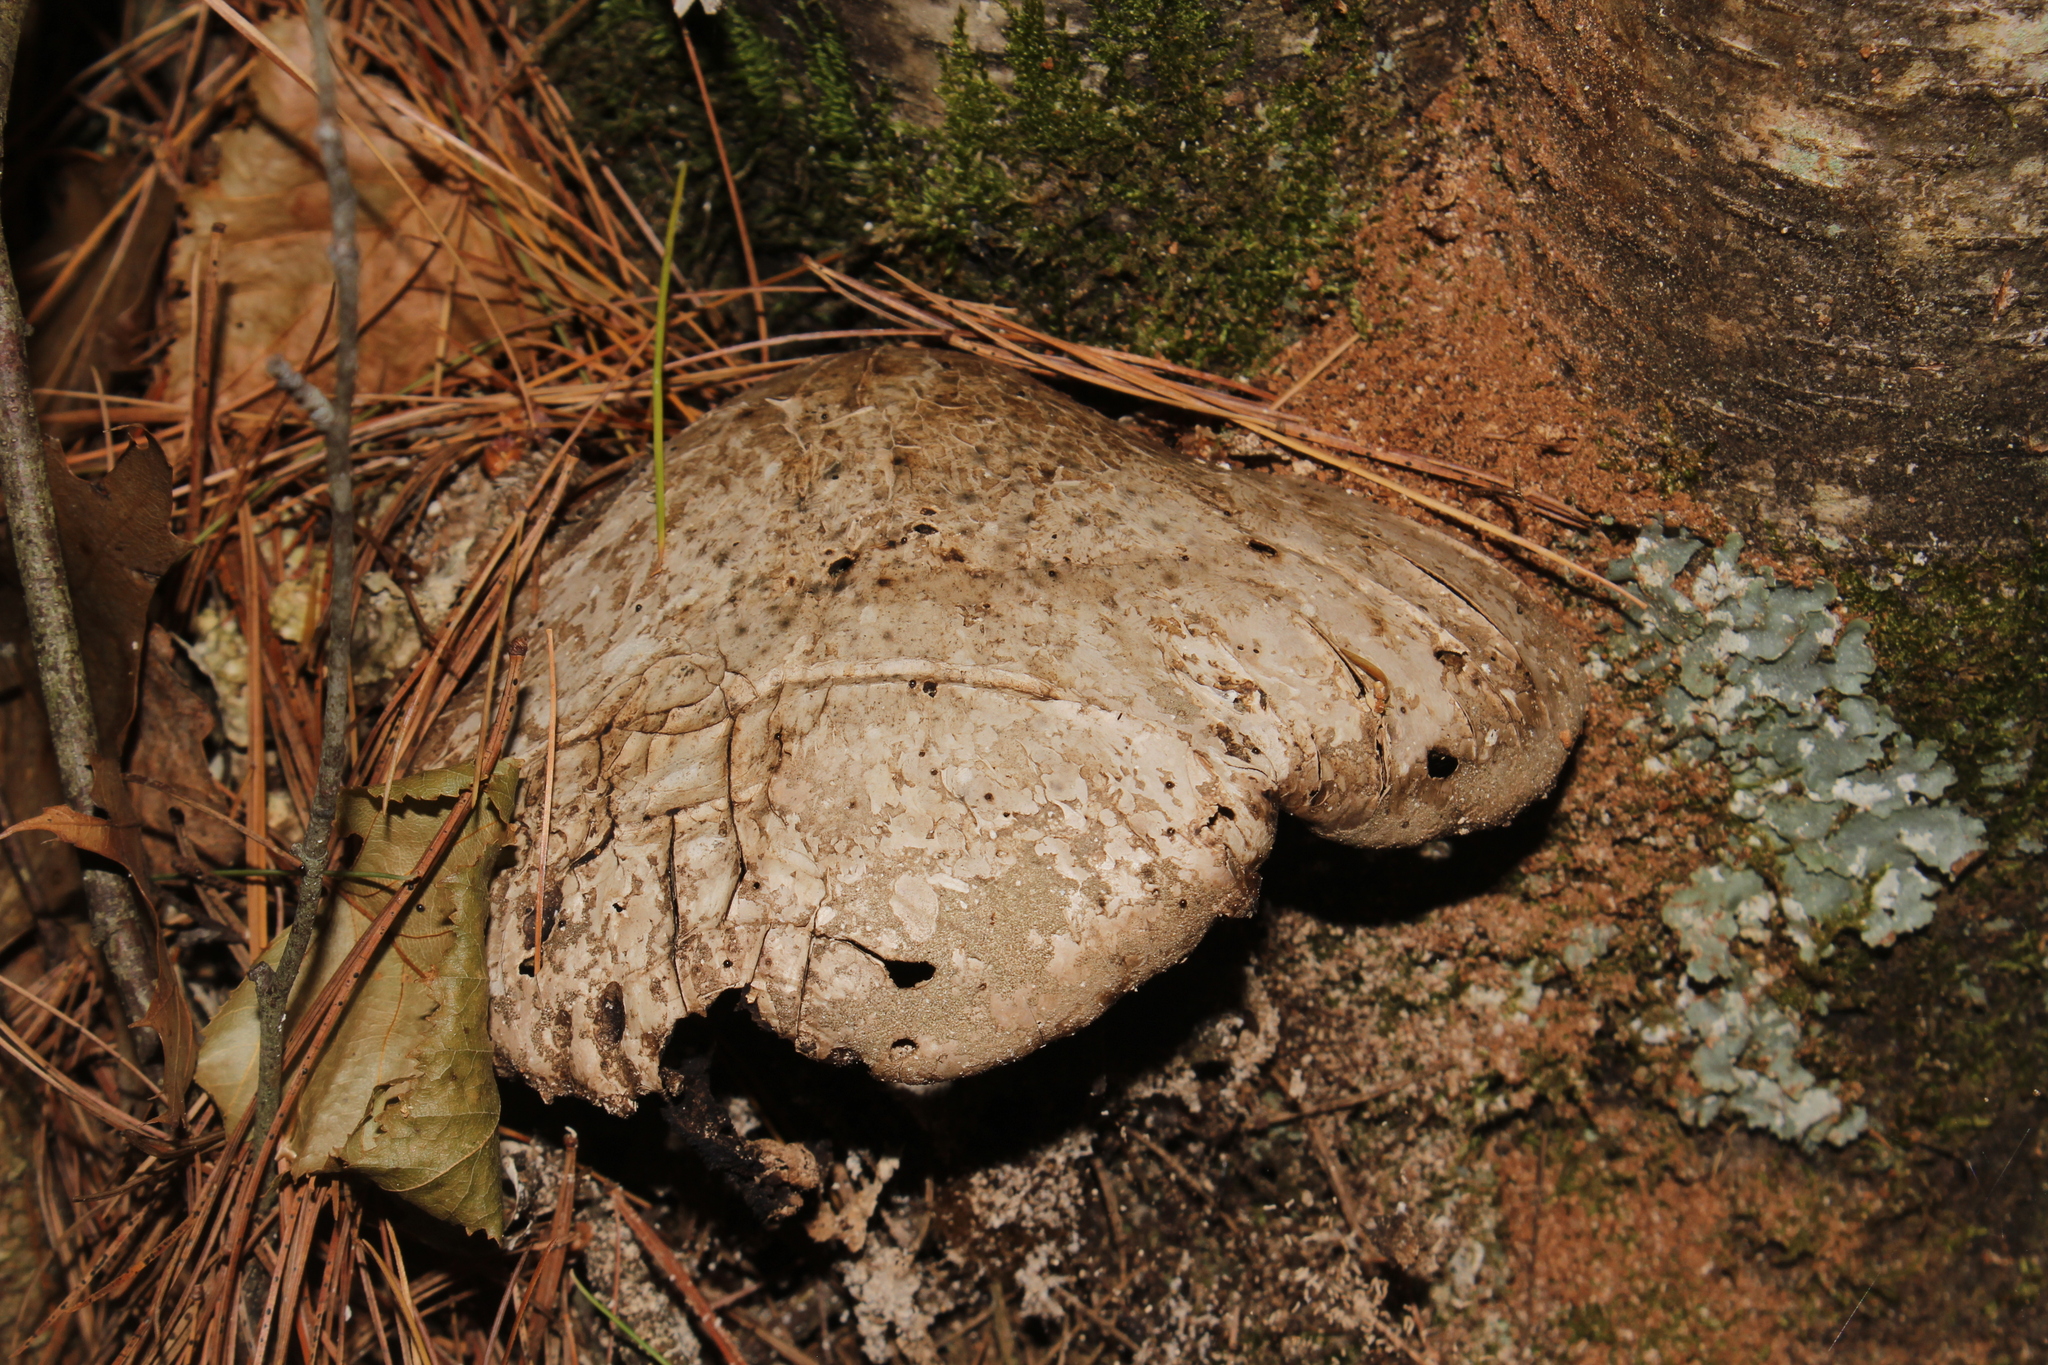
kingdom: Fungi
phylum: Basidiomycota
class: Agaricomycetes
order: Polyporales
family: Fomitopsidaceae
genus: Fomitopsis
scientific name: Fomitopsis betulina
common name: Birch polypore
